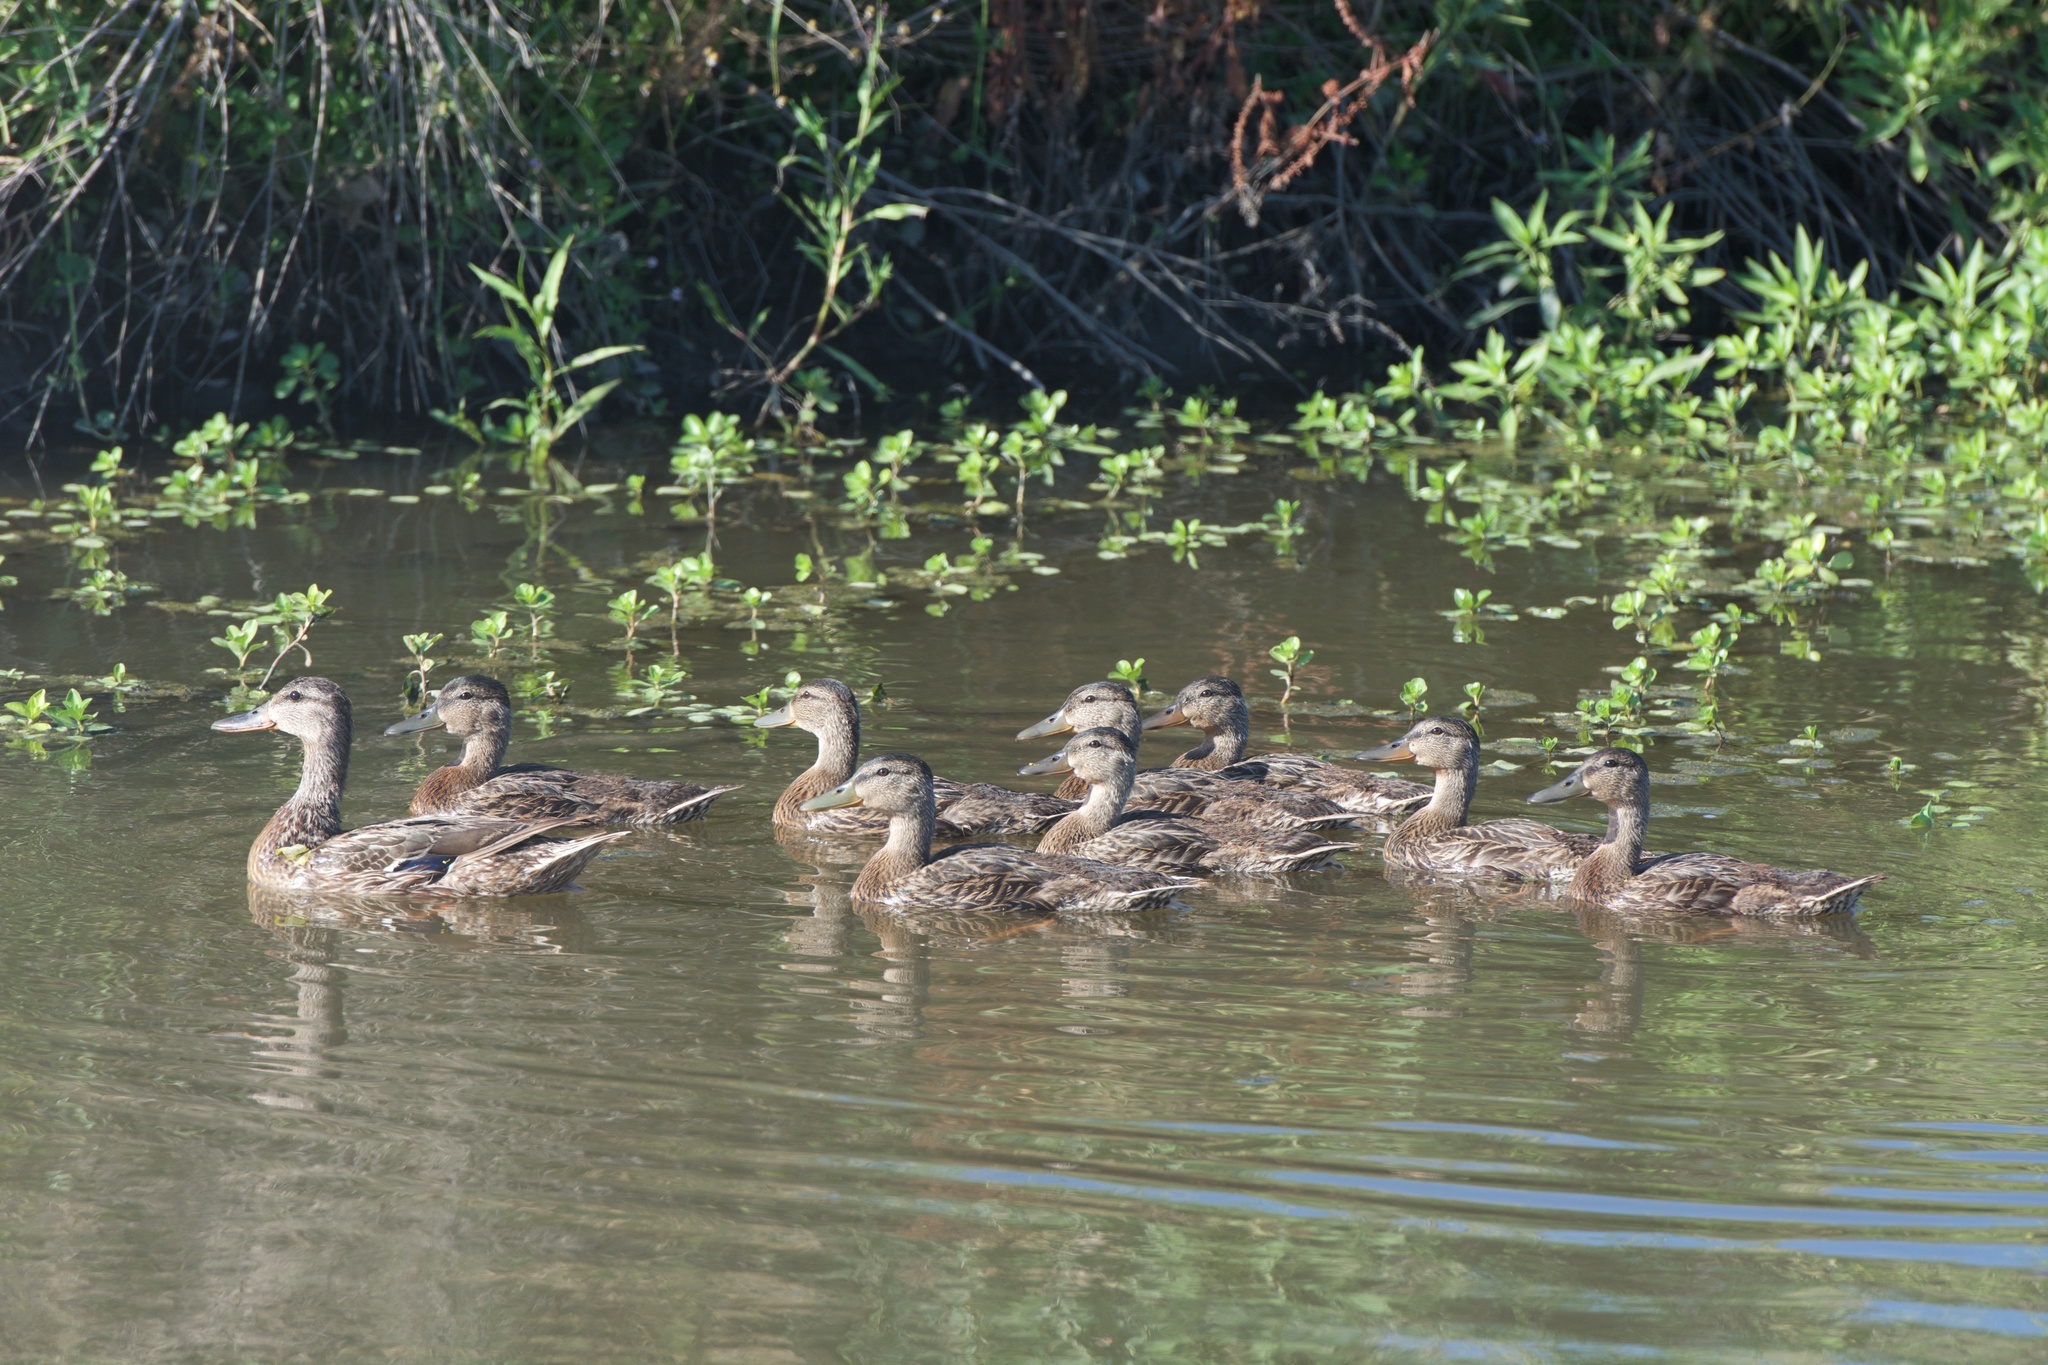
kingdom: Animalia
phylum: Chordata
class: Aves
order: Anseriformes
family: Anatidae
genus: Anas
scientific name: Anas platyrhynchos
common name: Mallard
